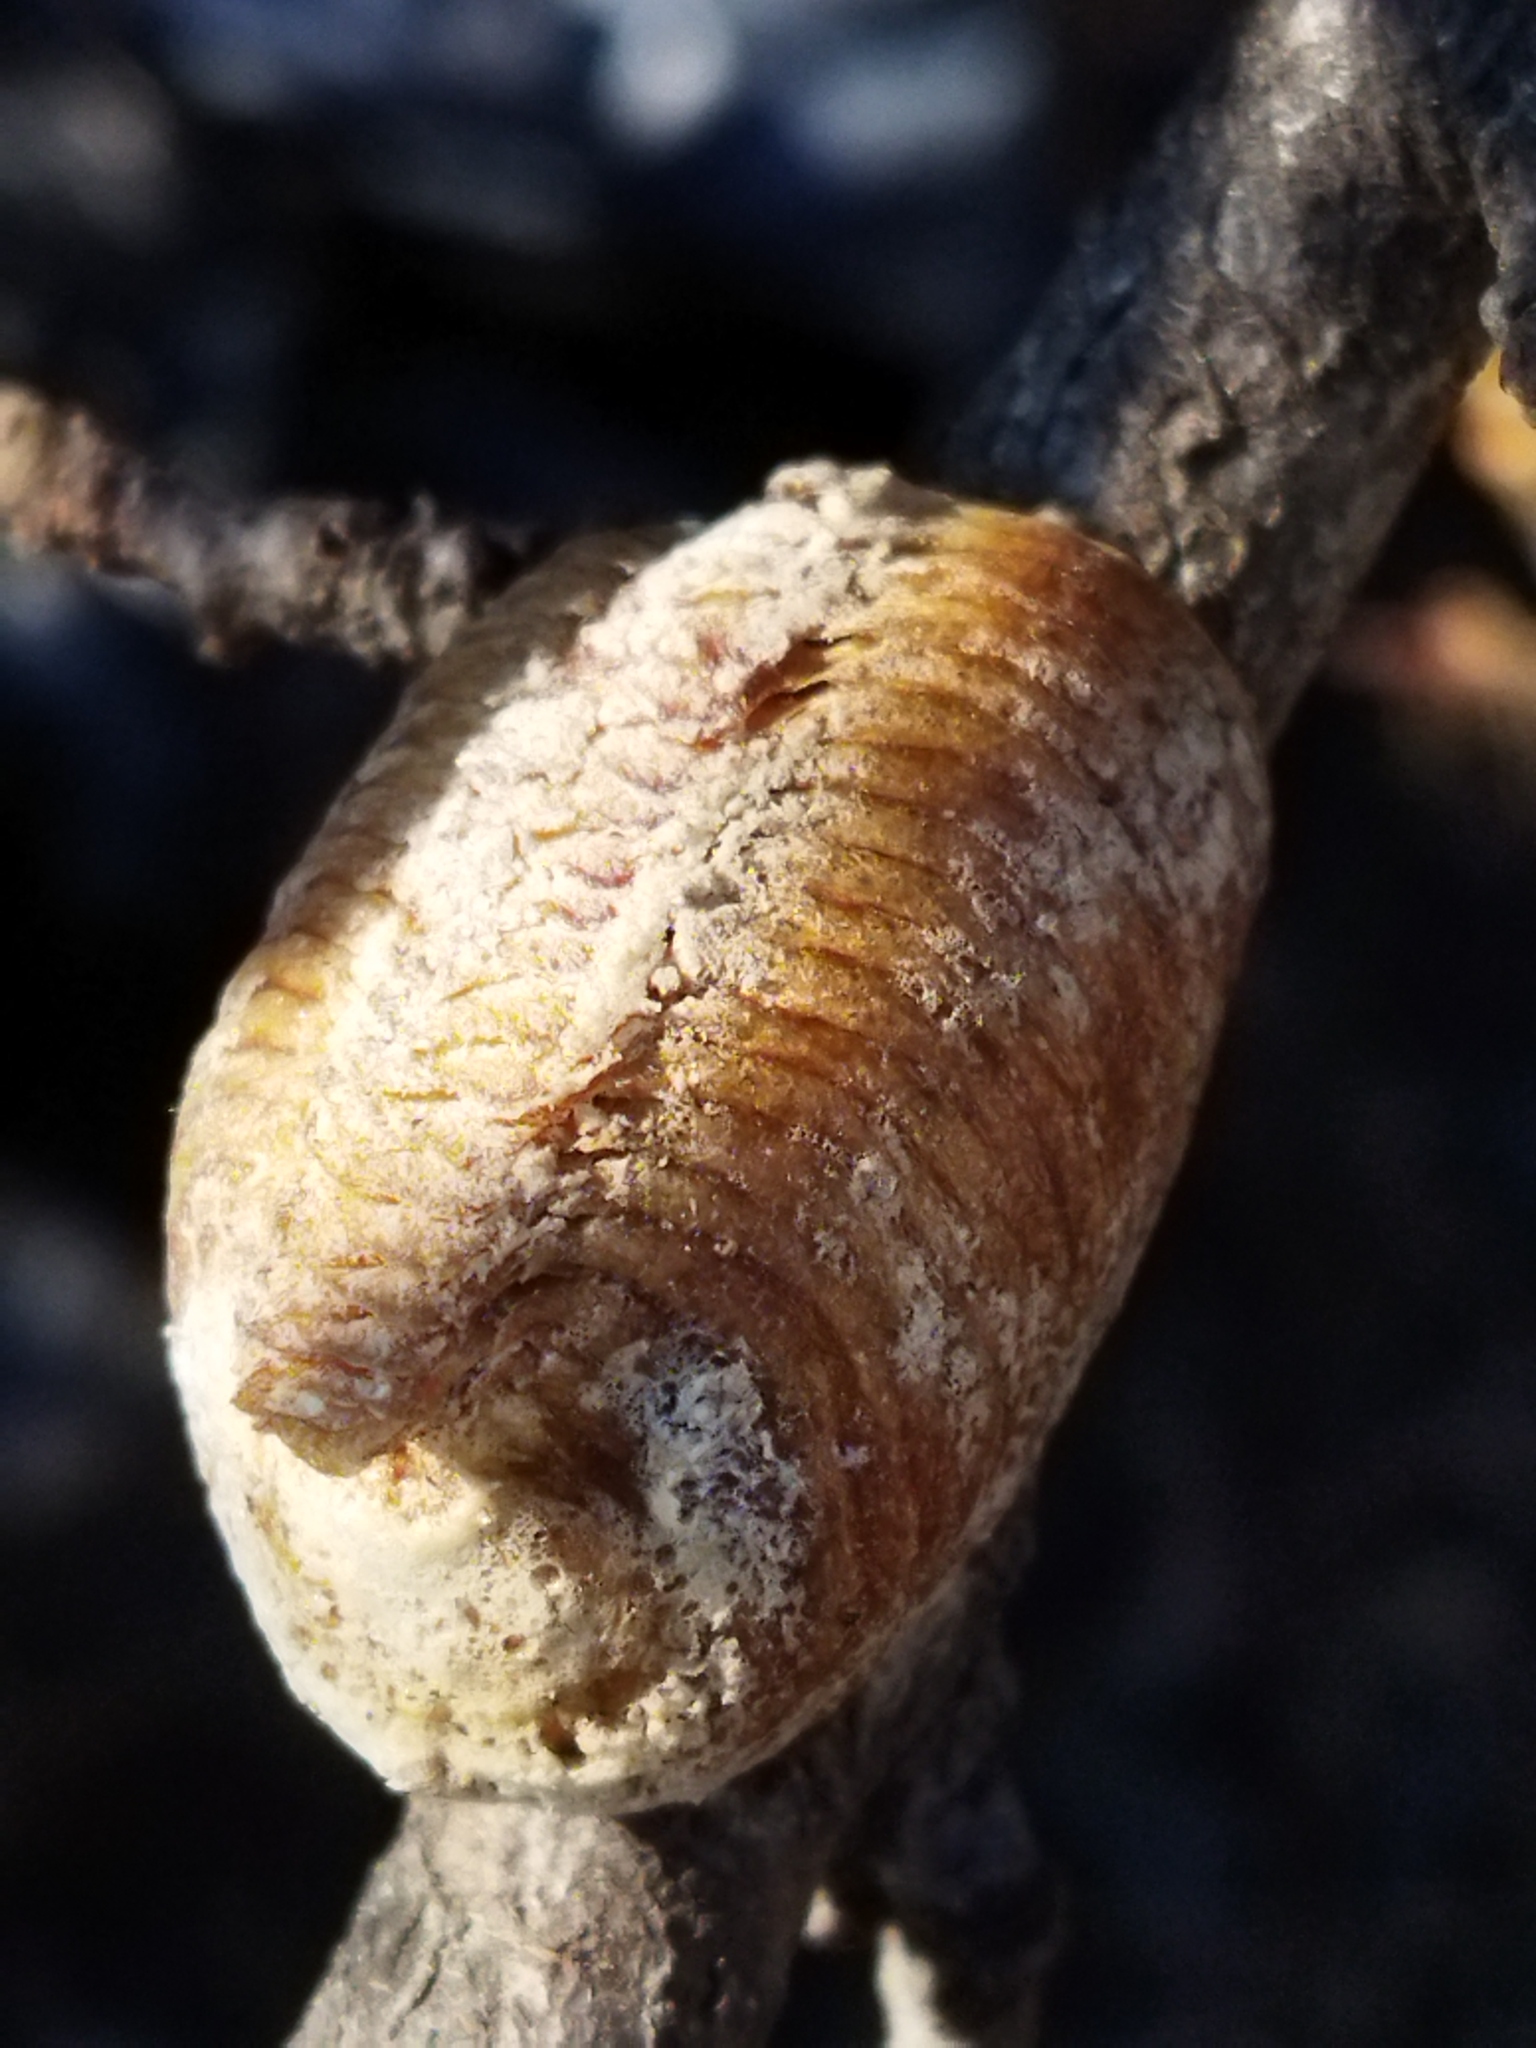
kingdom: Animalia
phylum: Arthropoda
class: Insecta
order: Mantodea
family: Mantidae
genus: Hierodula
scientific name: Hierodula transcaucasica
